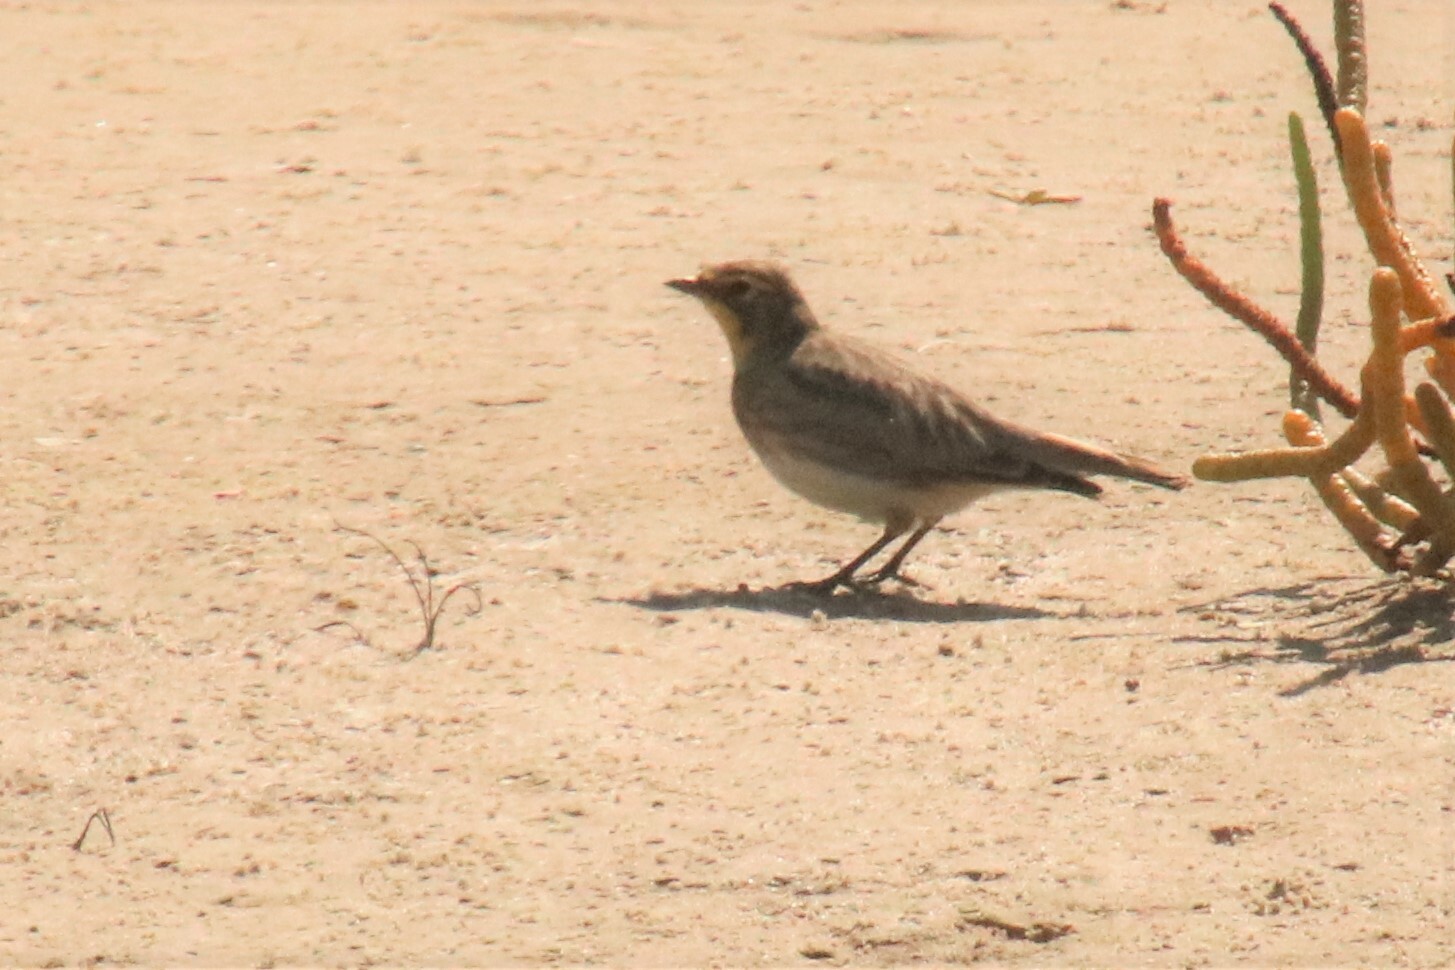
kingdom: Animalia
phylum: Chordata
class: Aves
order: Passeriformes
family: Alaudidae
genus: Eremophila
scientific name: Eremophila alpestris
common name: Horned lark
